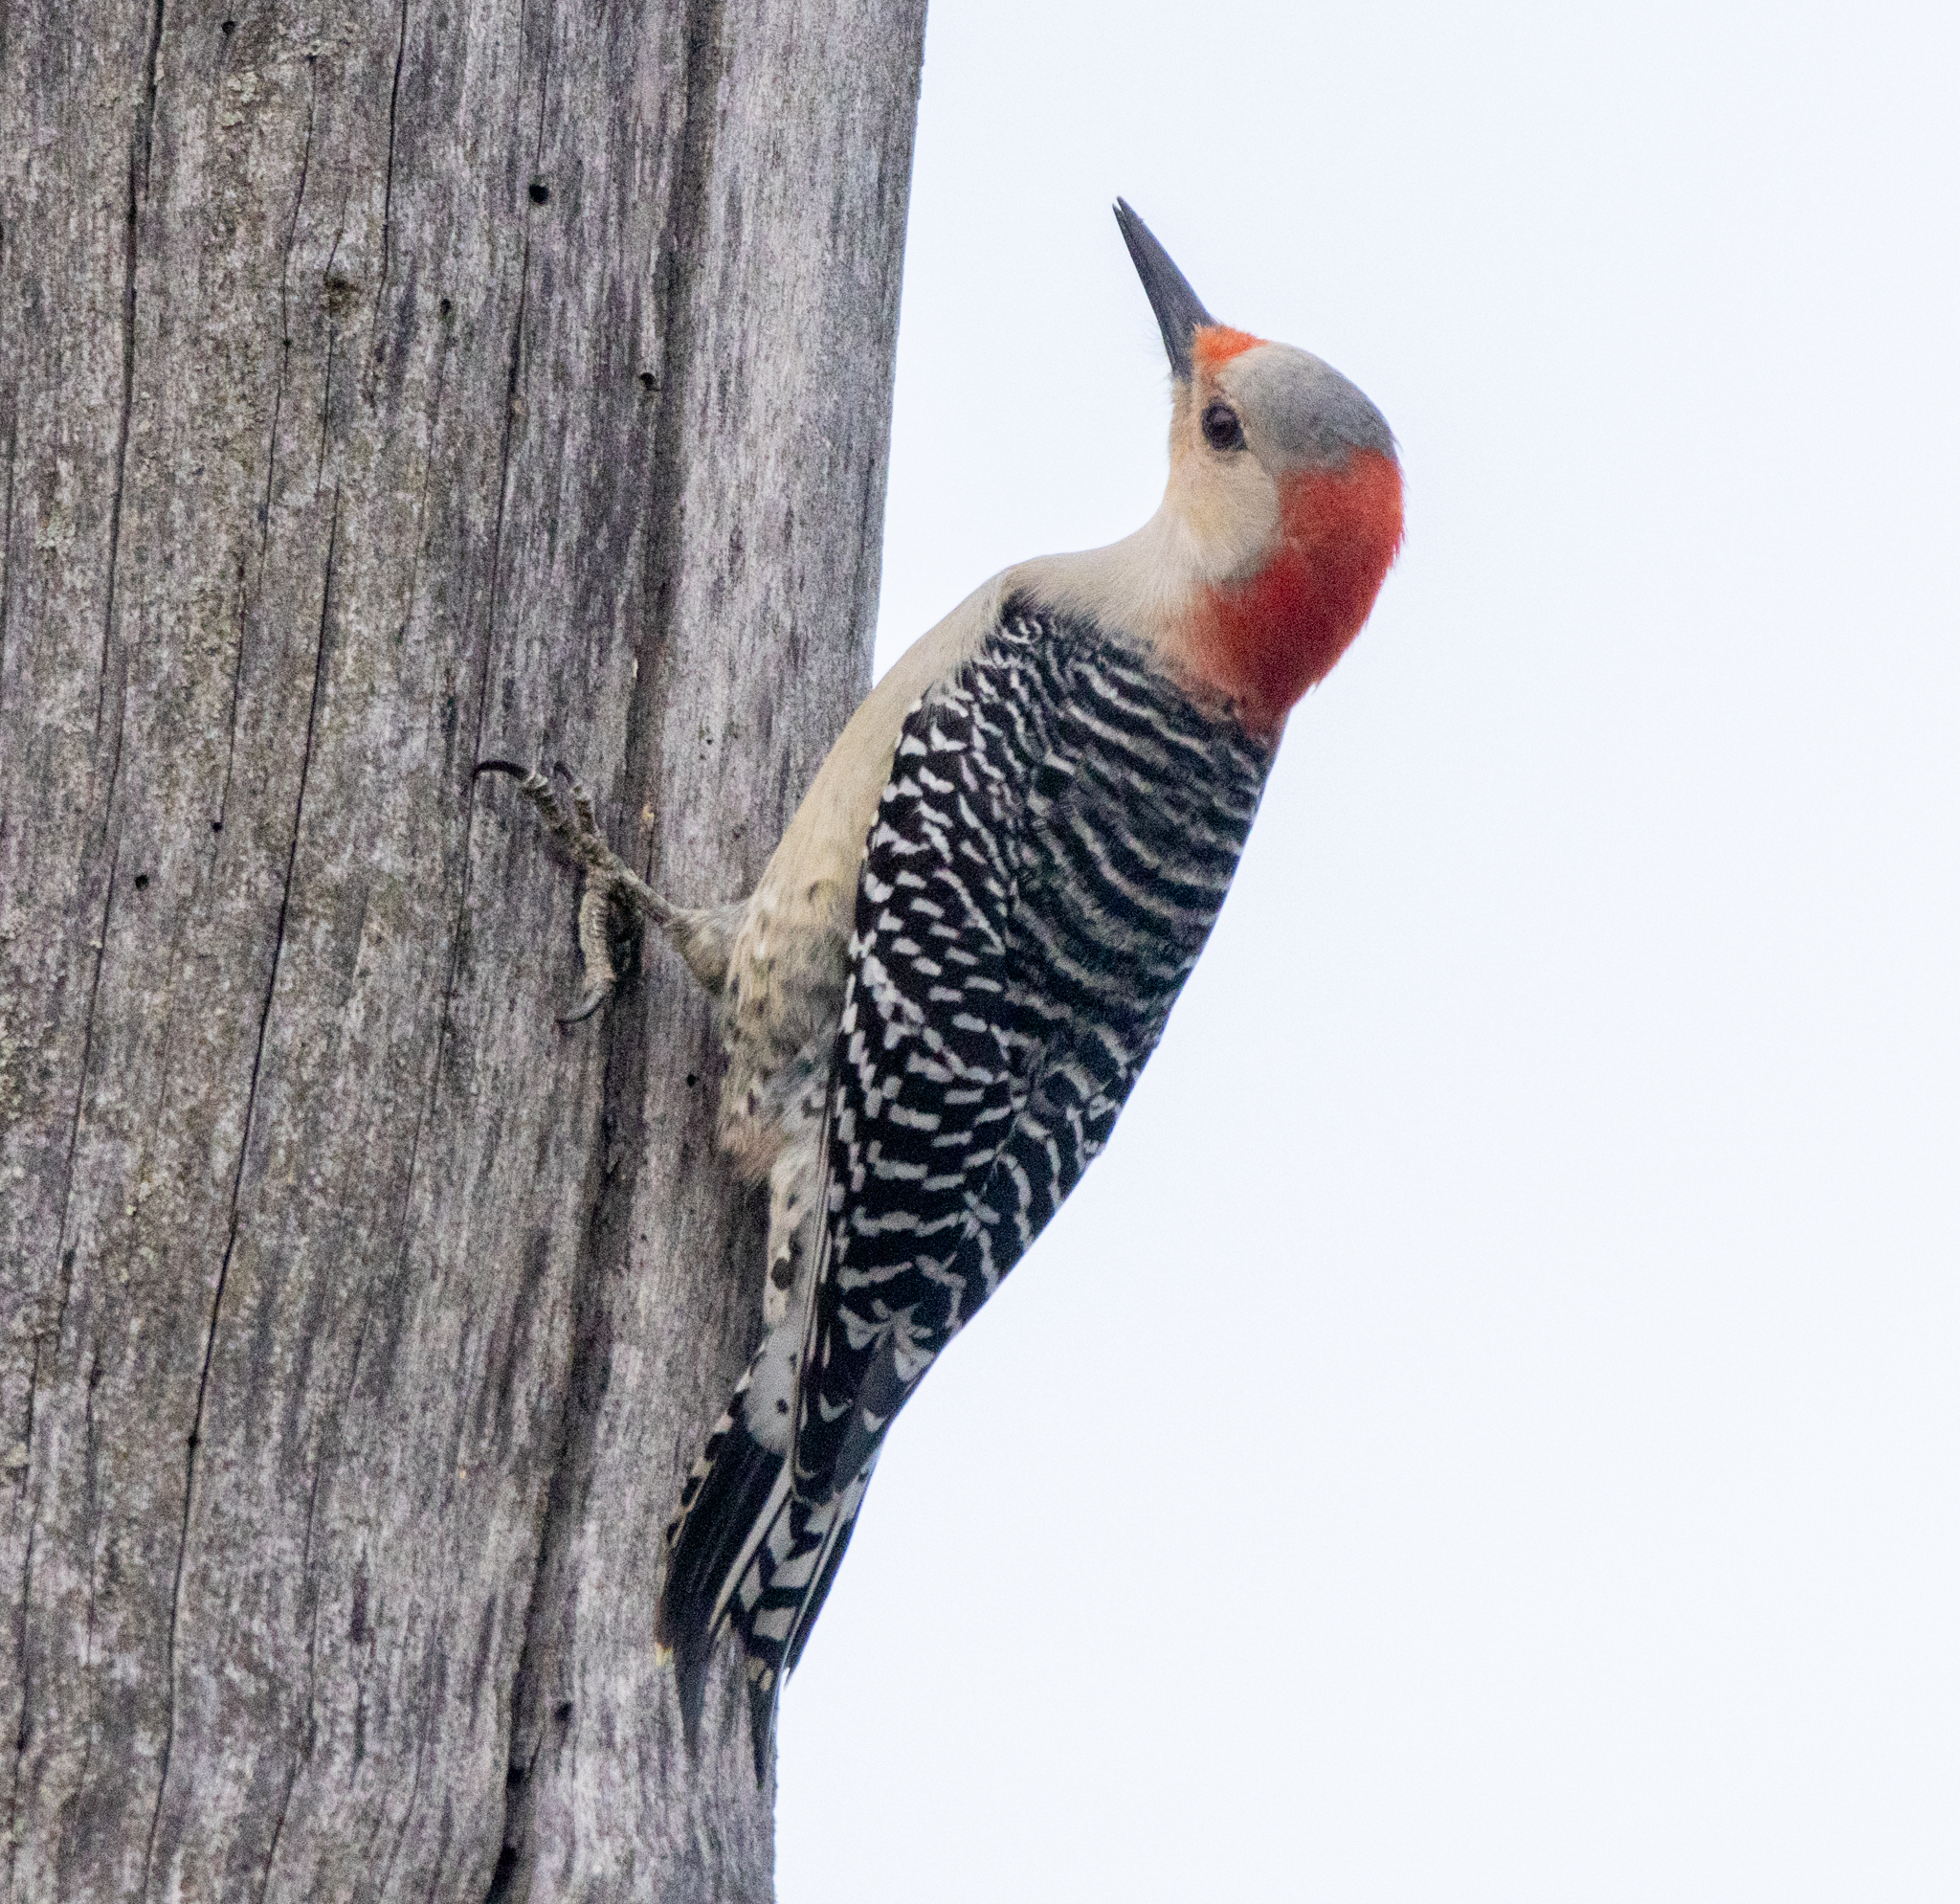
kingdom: Animalia
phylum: Chordata
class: Aves
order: Piciformes
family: Picidae
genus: Melanerpes
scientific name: Melanerpes carolinus
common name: Red-bellied woodpecker
